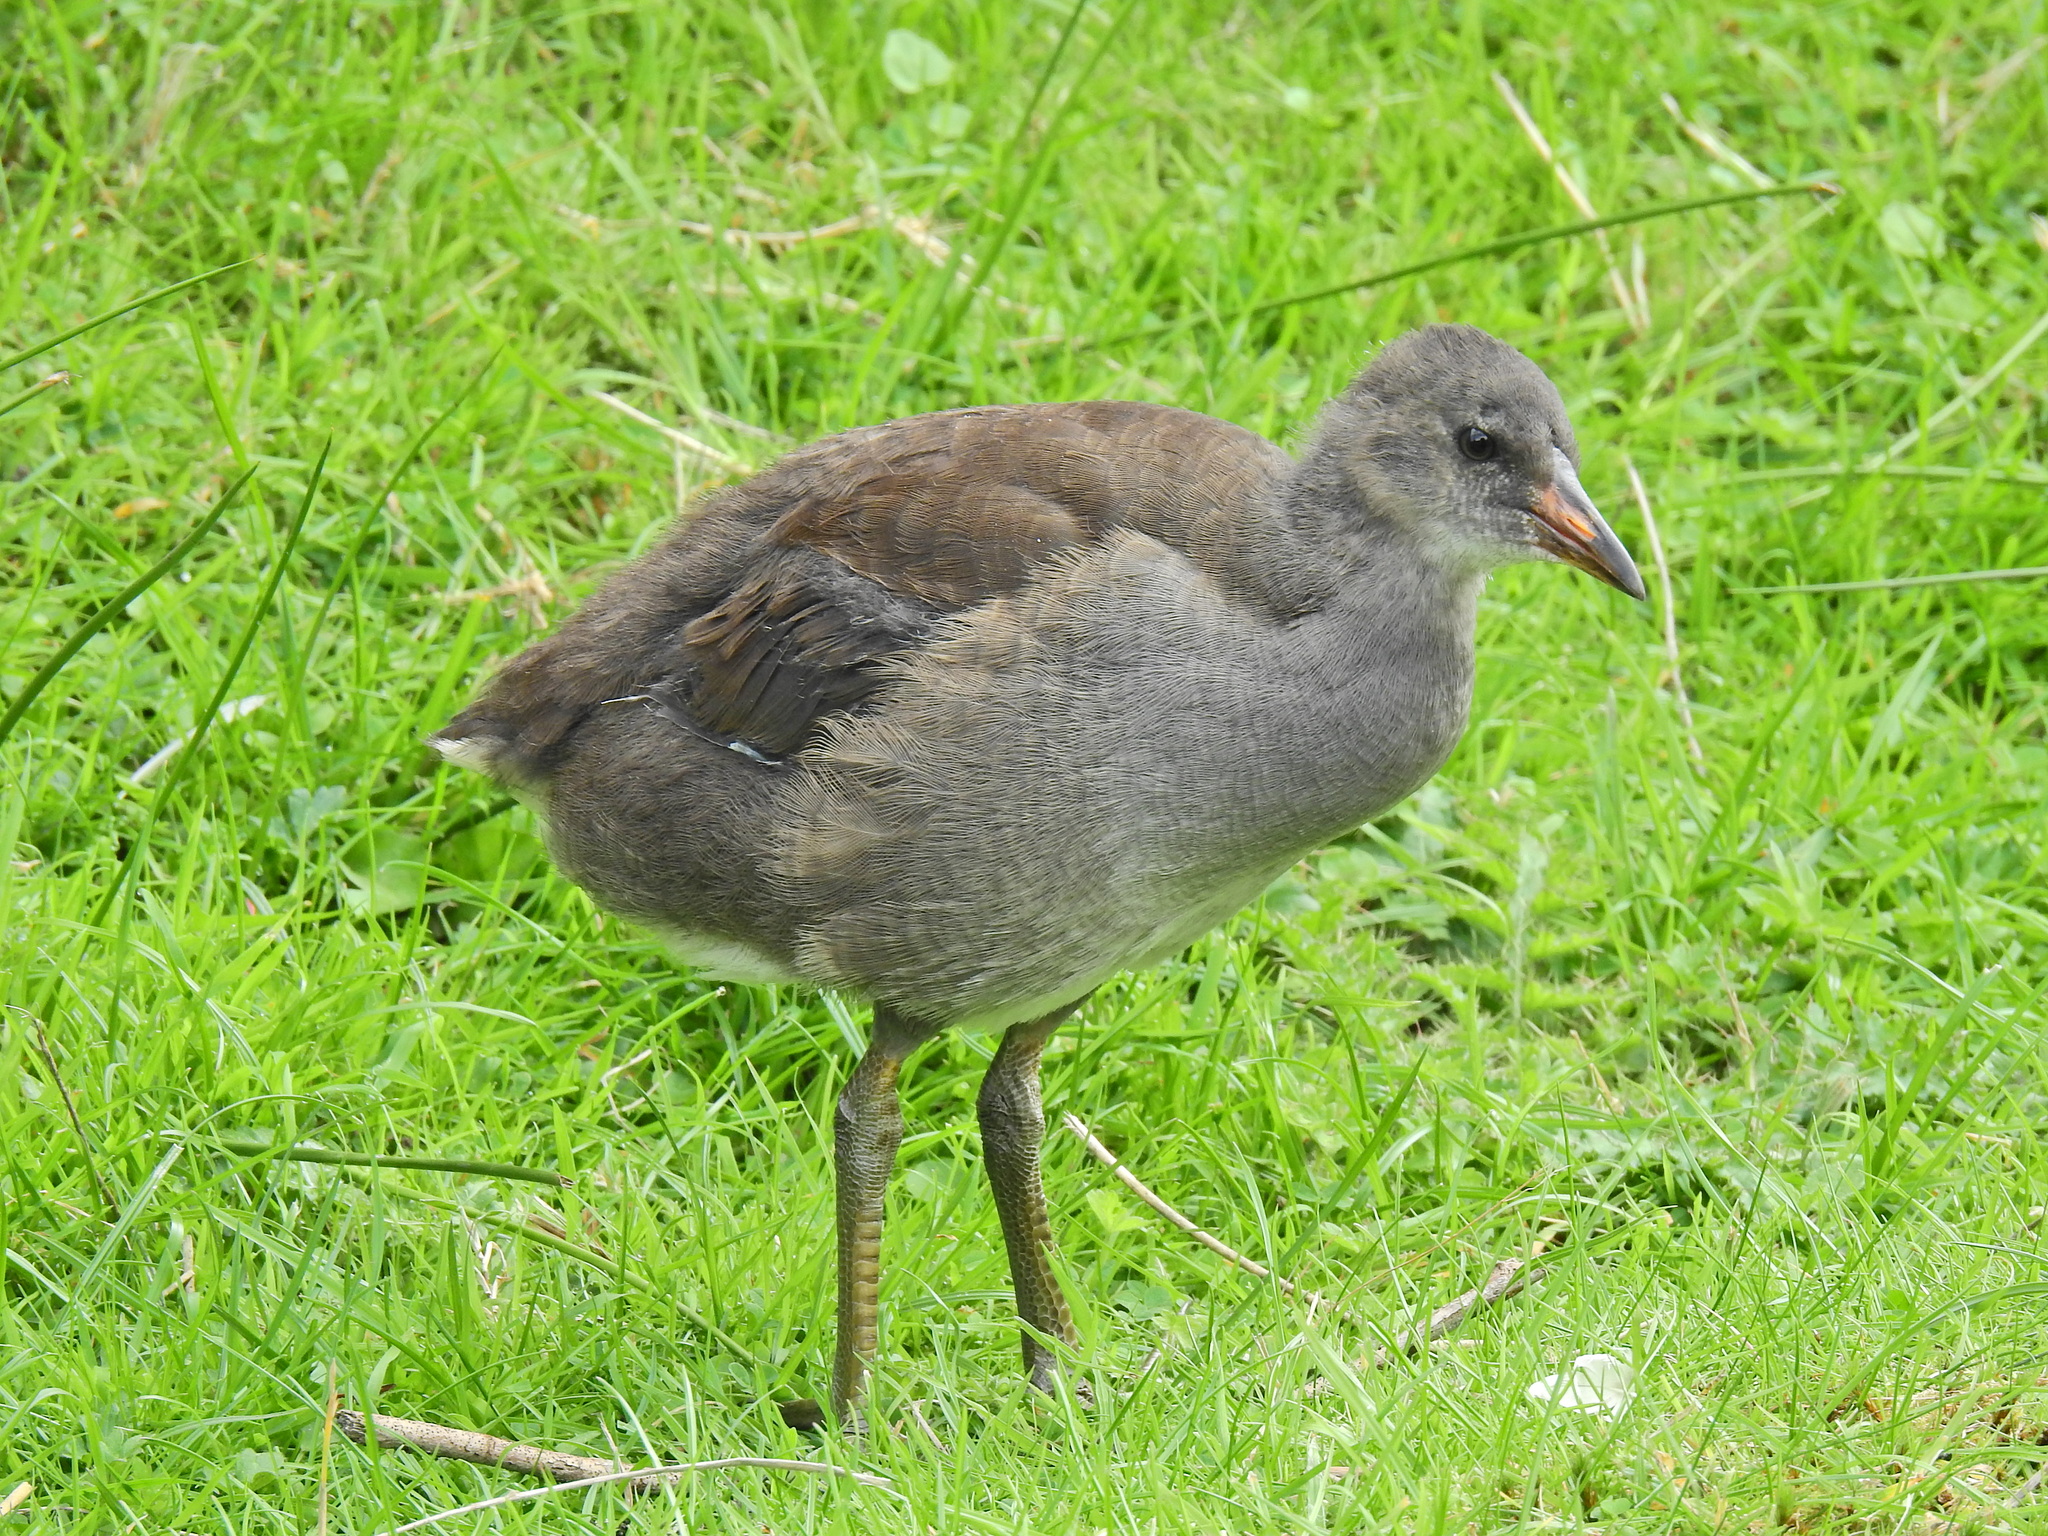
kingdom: Animalia
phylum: Chordata
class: Aves
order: Gruiformes
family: Rallidae
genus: Gallinula
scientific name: Gallinula chloropus
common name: Common moorhen
